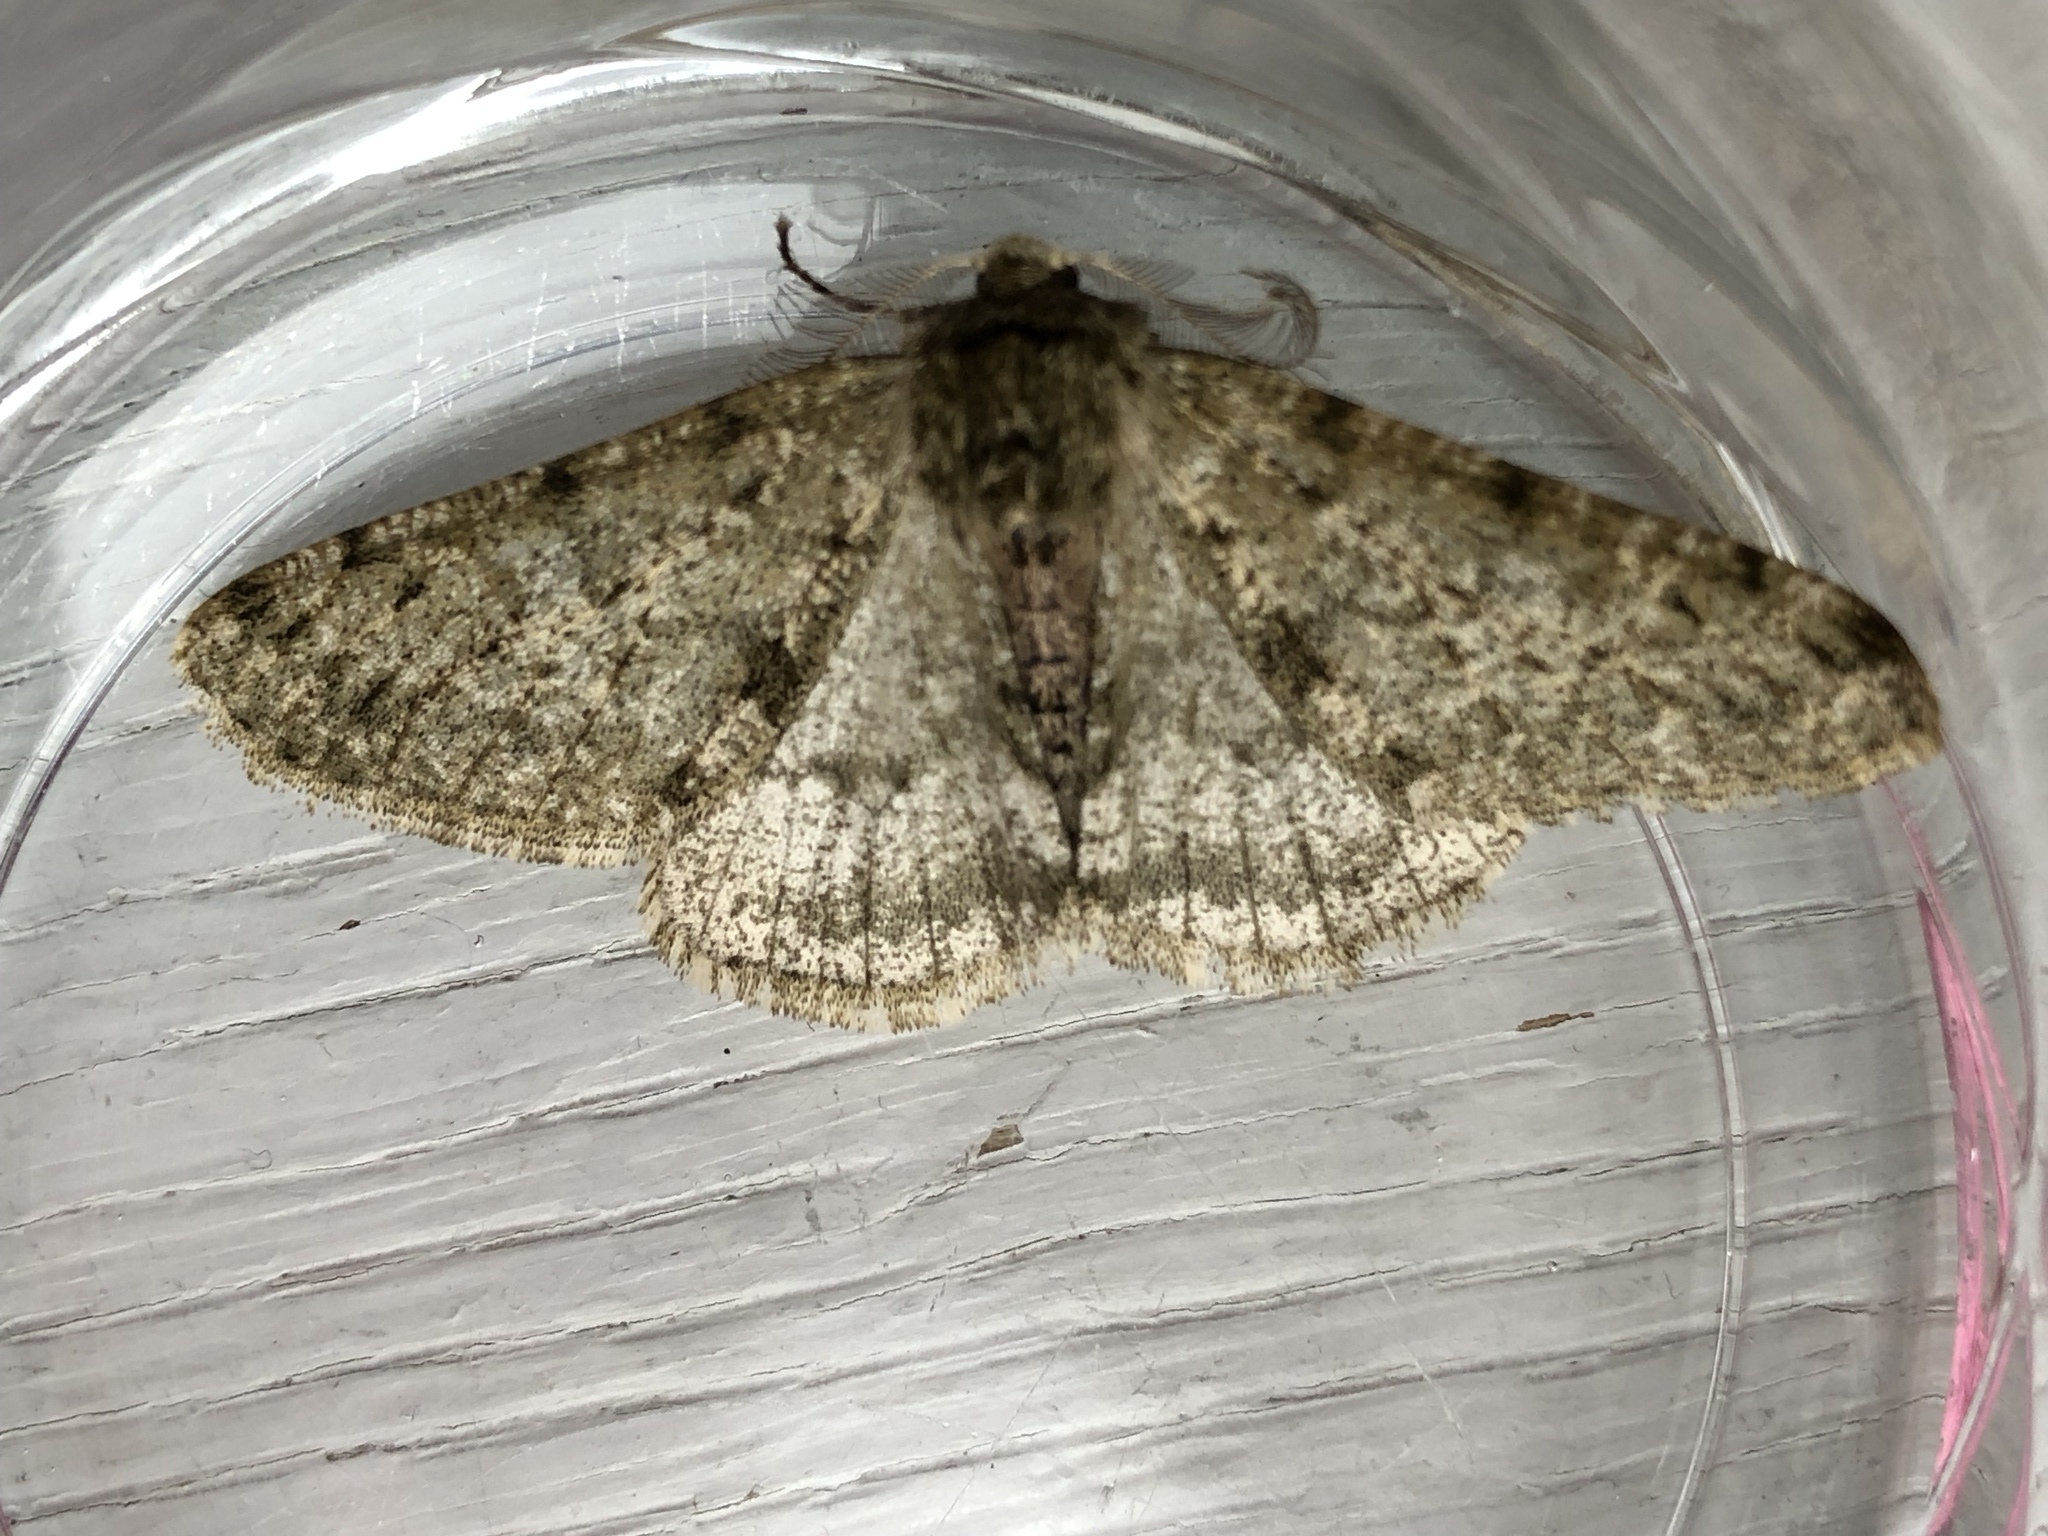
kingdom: Animalia
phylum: Arthropoda
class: Insecta
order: Lepidoptera
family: Geometridae
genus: Phigalia
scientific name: Phigalia pilosaria
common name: Pale brindled beauty
